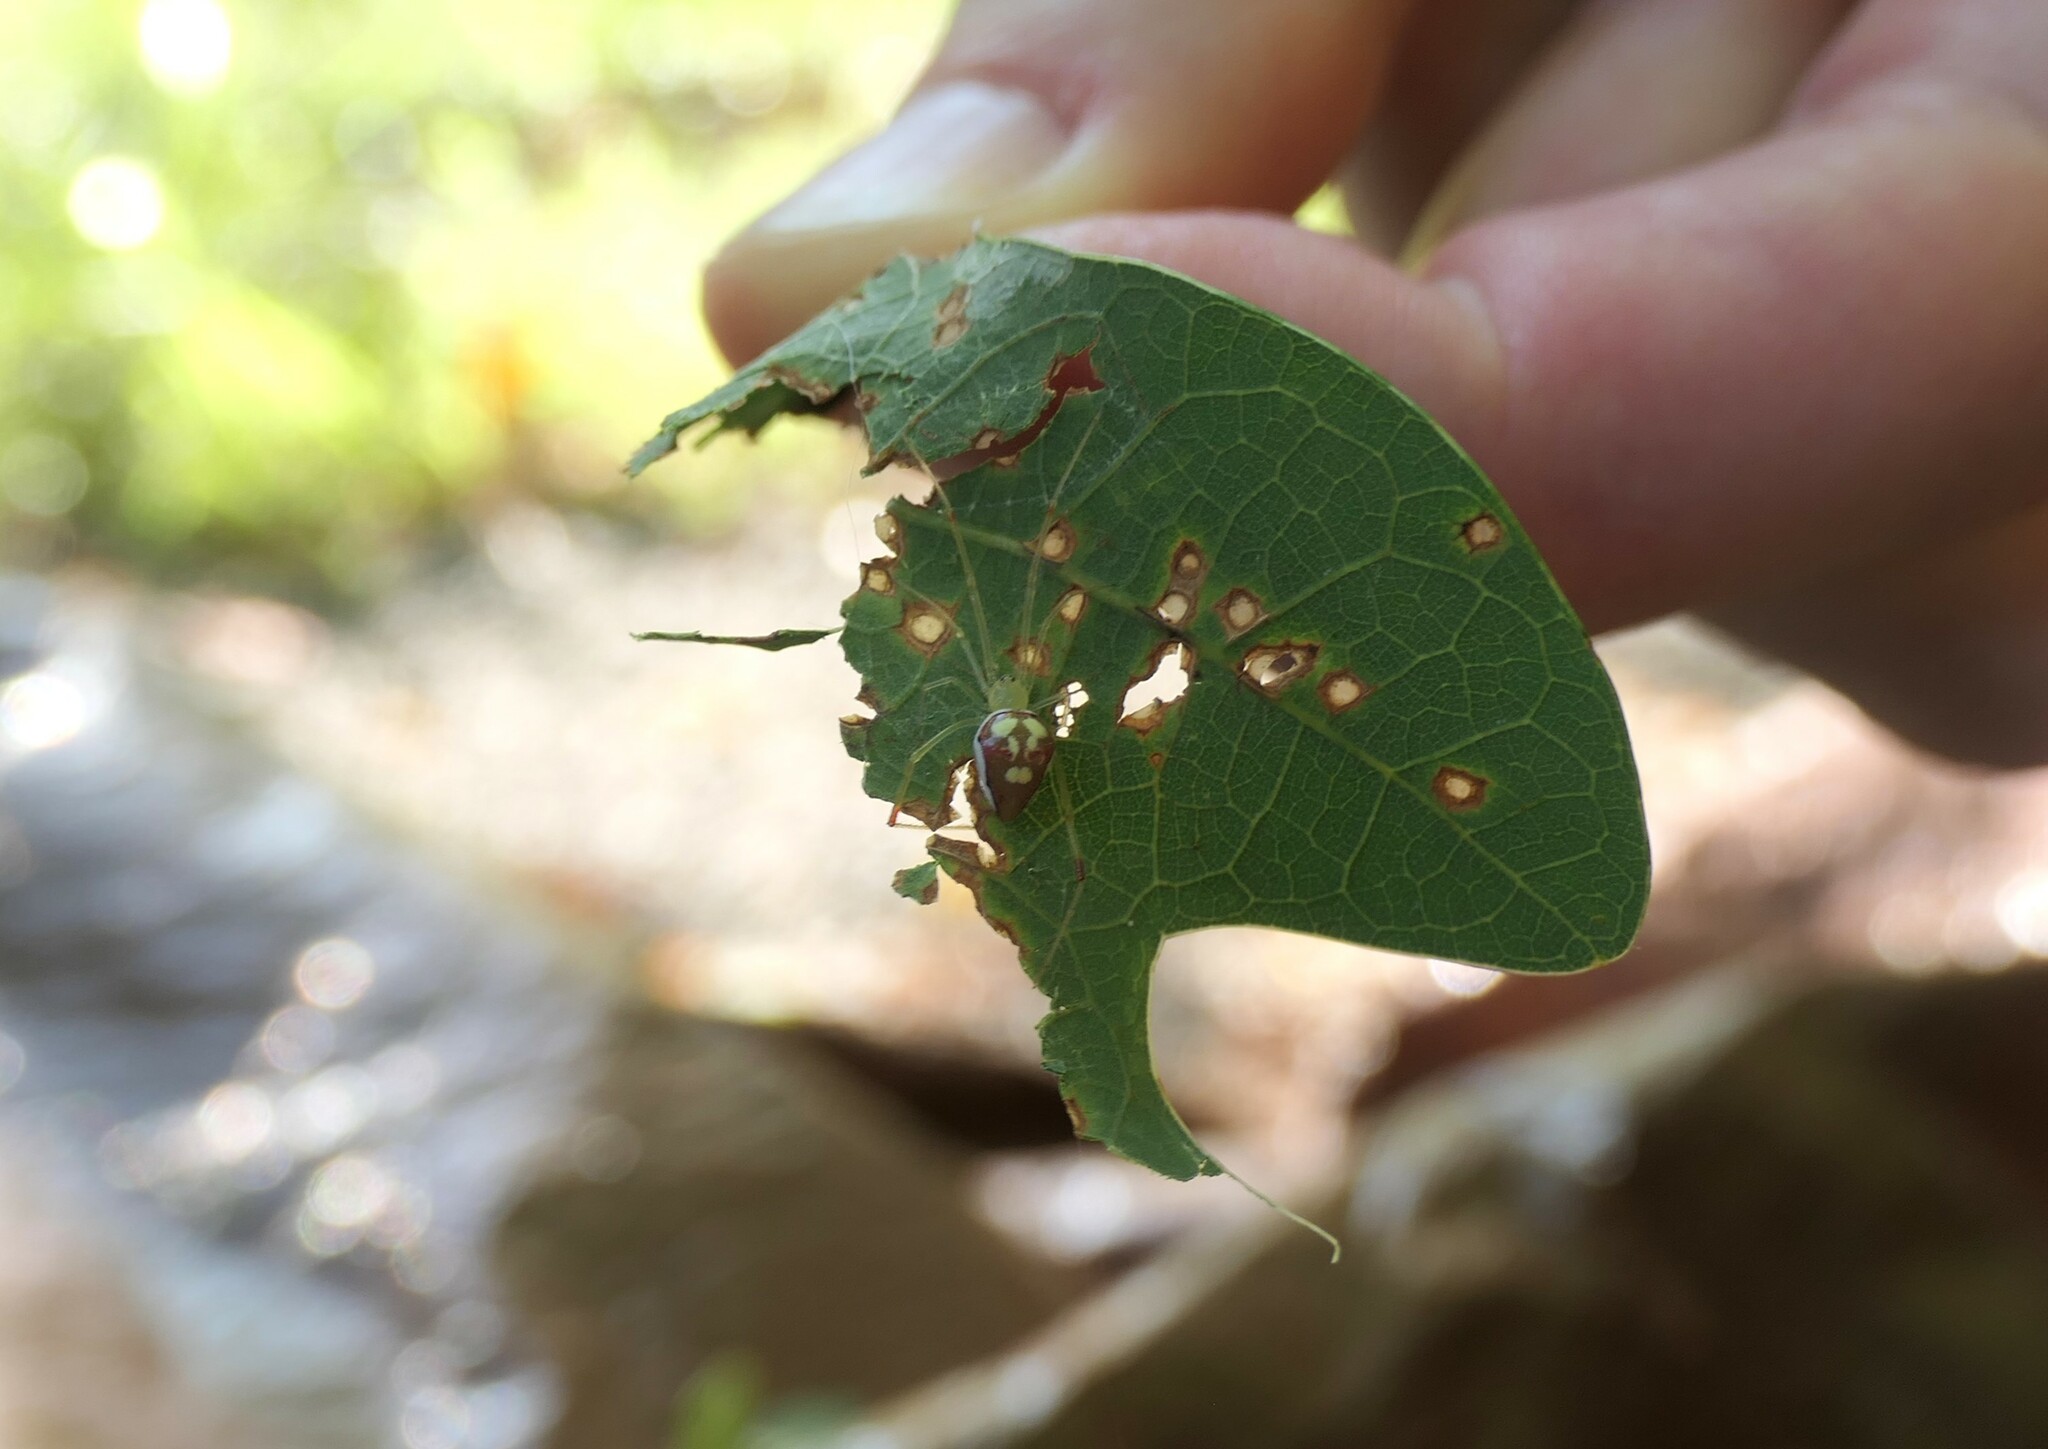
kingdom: Animalia
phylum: Arthropoda
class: Arachnida
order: Araneae
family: Theridiidae
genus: Spintharus
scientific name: Spintharus flavidus
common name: Cobweb spiders
